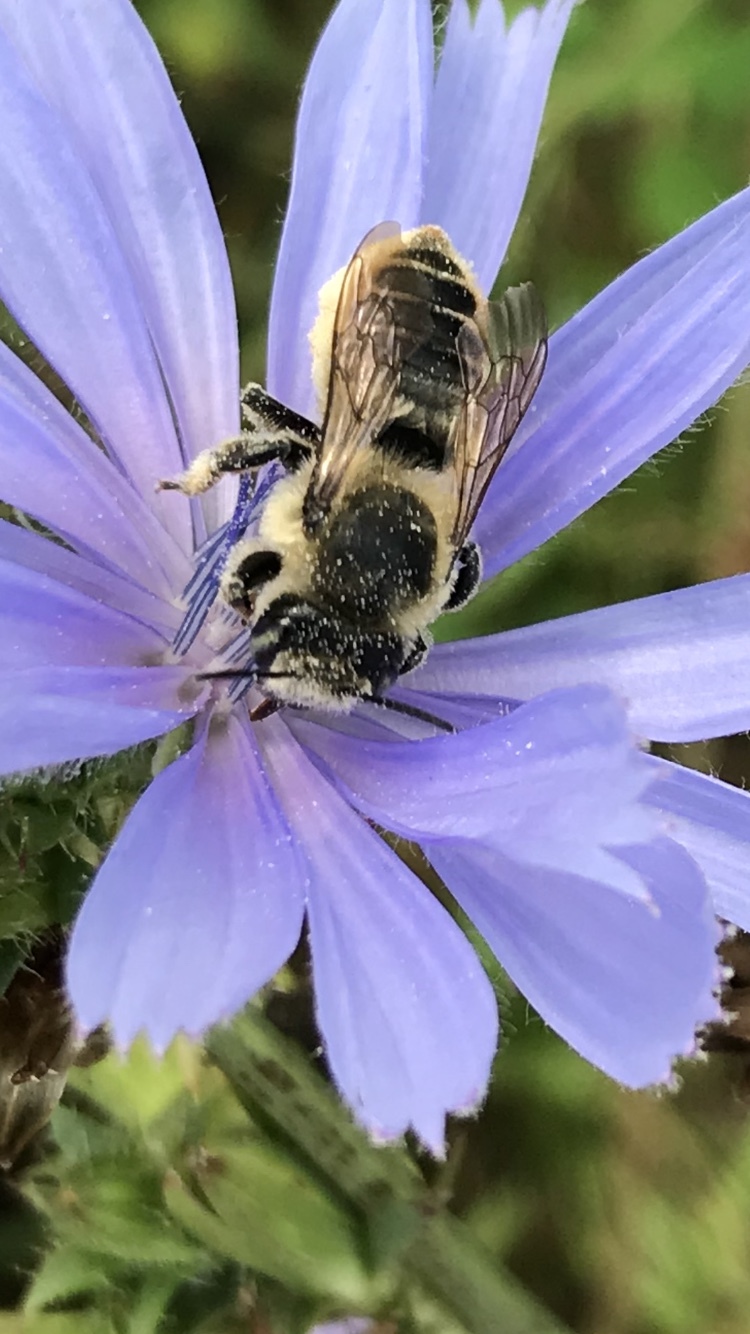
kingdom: Animalia
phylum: Arthropoda
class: Insecta
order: Hymenoptera
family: Megachilidae
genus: Megachile
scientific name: Megachile latimanus
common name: Leafcutting bee
